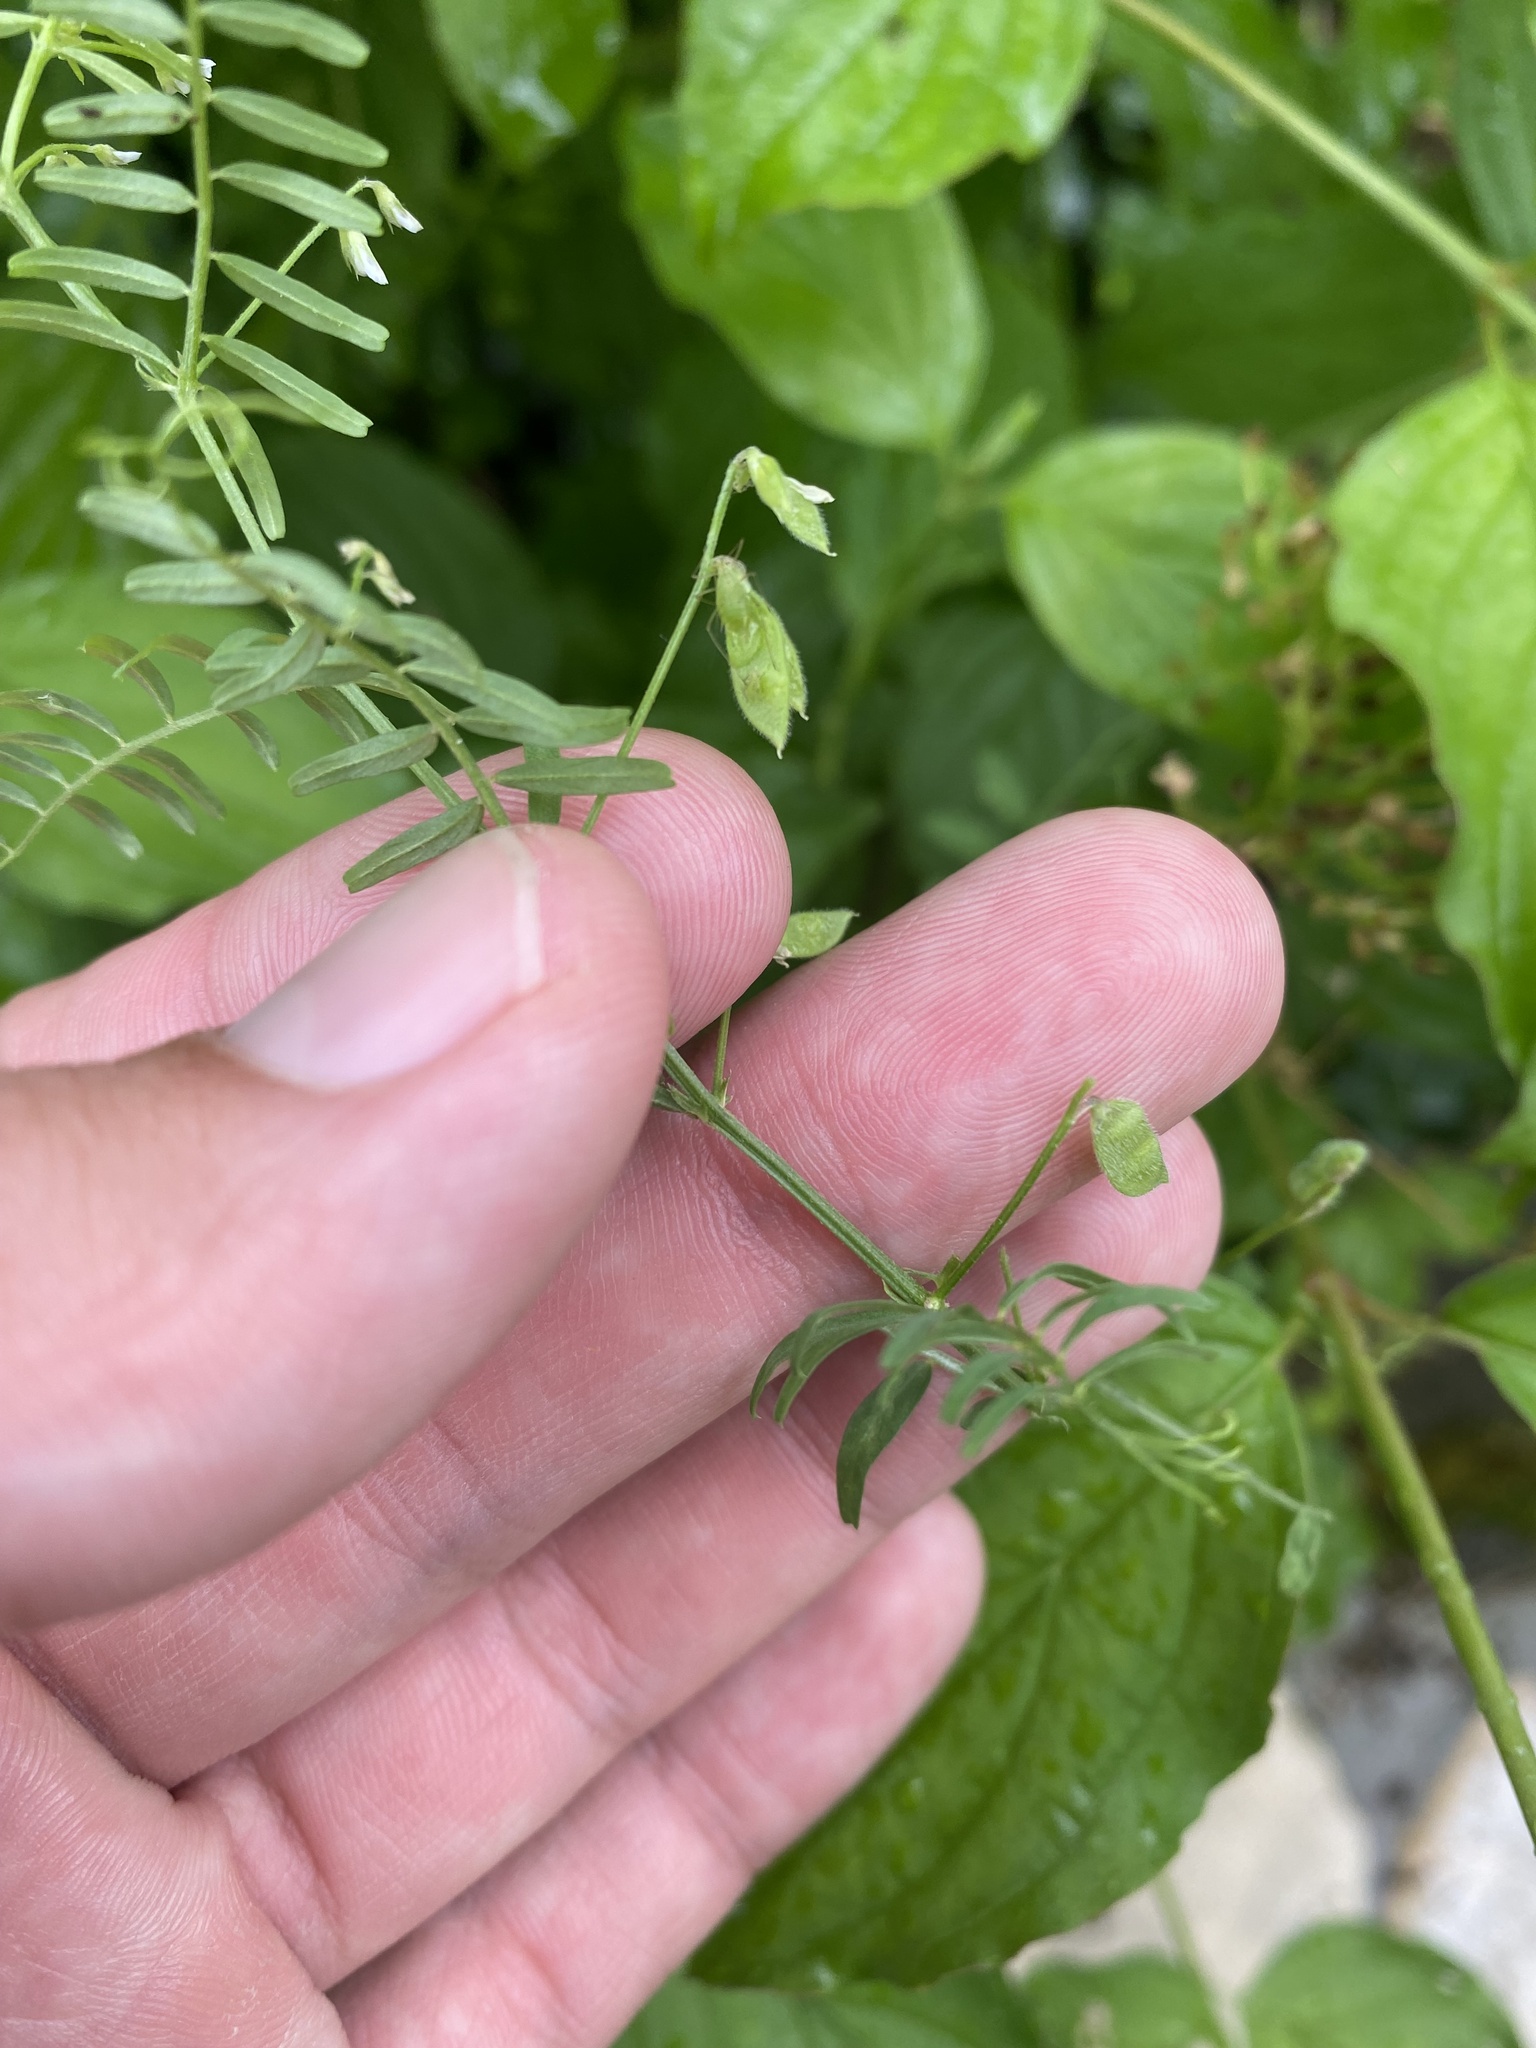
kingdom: Plantae
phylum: Tracheophyta
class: Magnoliopsida
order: Fabales
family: Fabaceae
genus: Vicia
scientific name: Vicia hirsuta
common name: Tiny vetch
